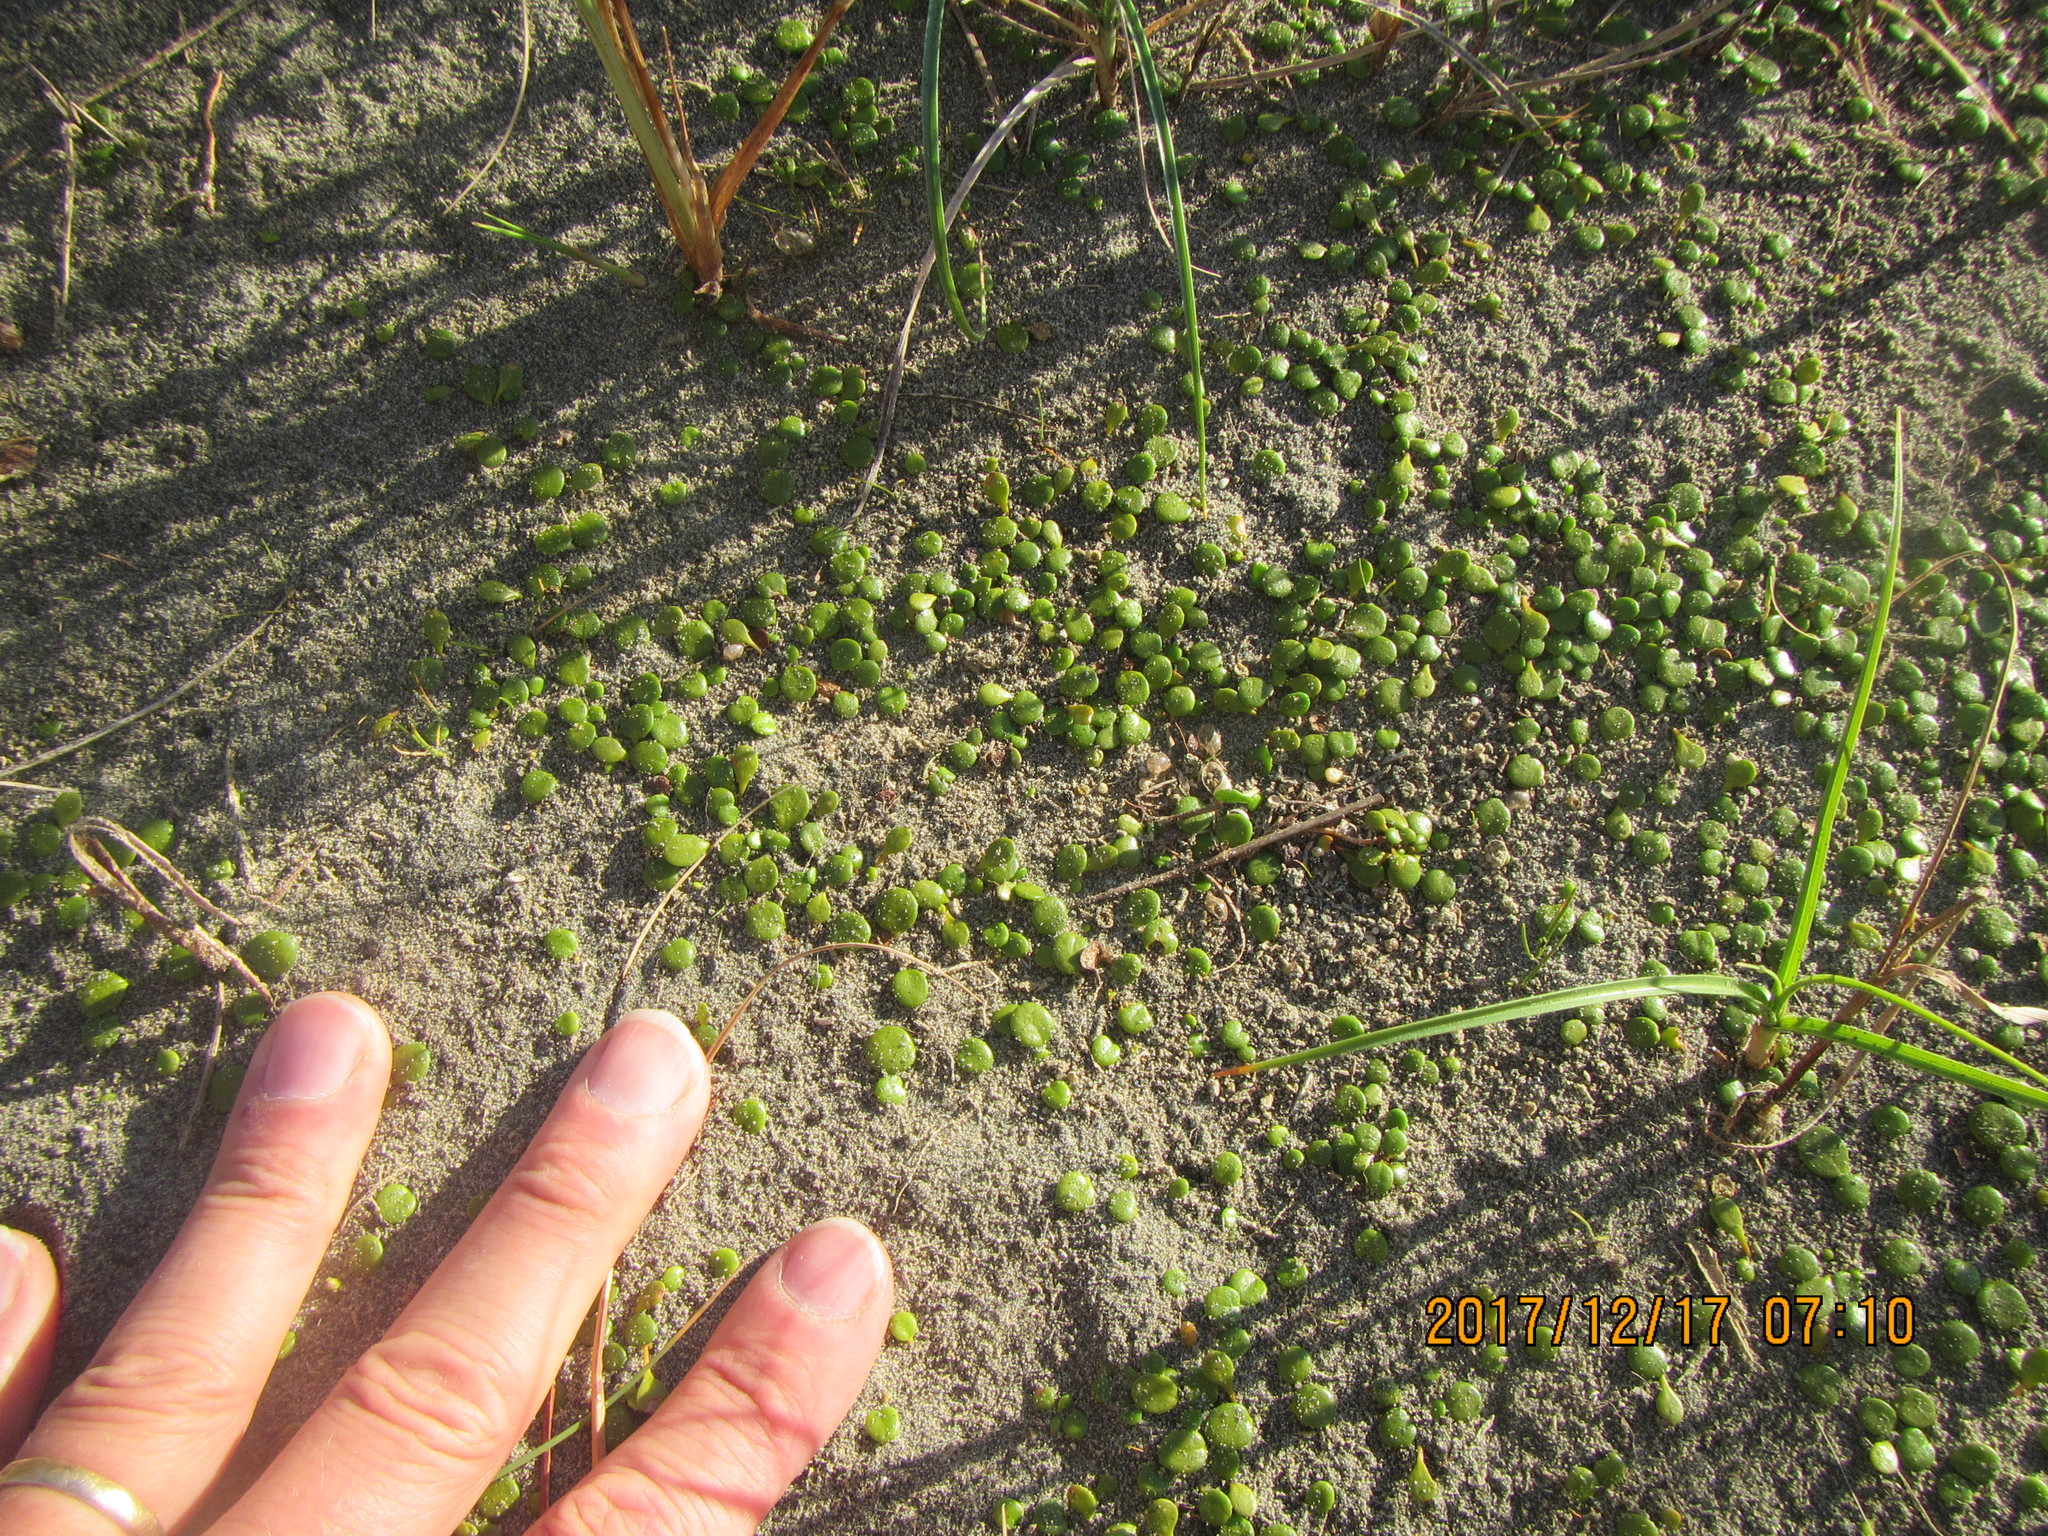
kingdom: Plantae
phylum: Tracheophyta
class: Magnoliopsida
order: Asterales
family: Goodeniaceae
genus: Goodenia
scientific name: Goodenia heenanii
